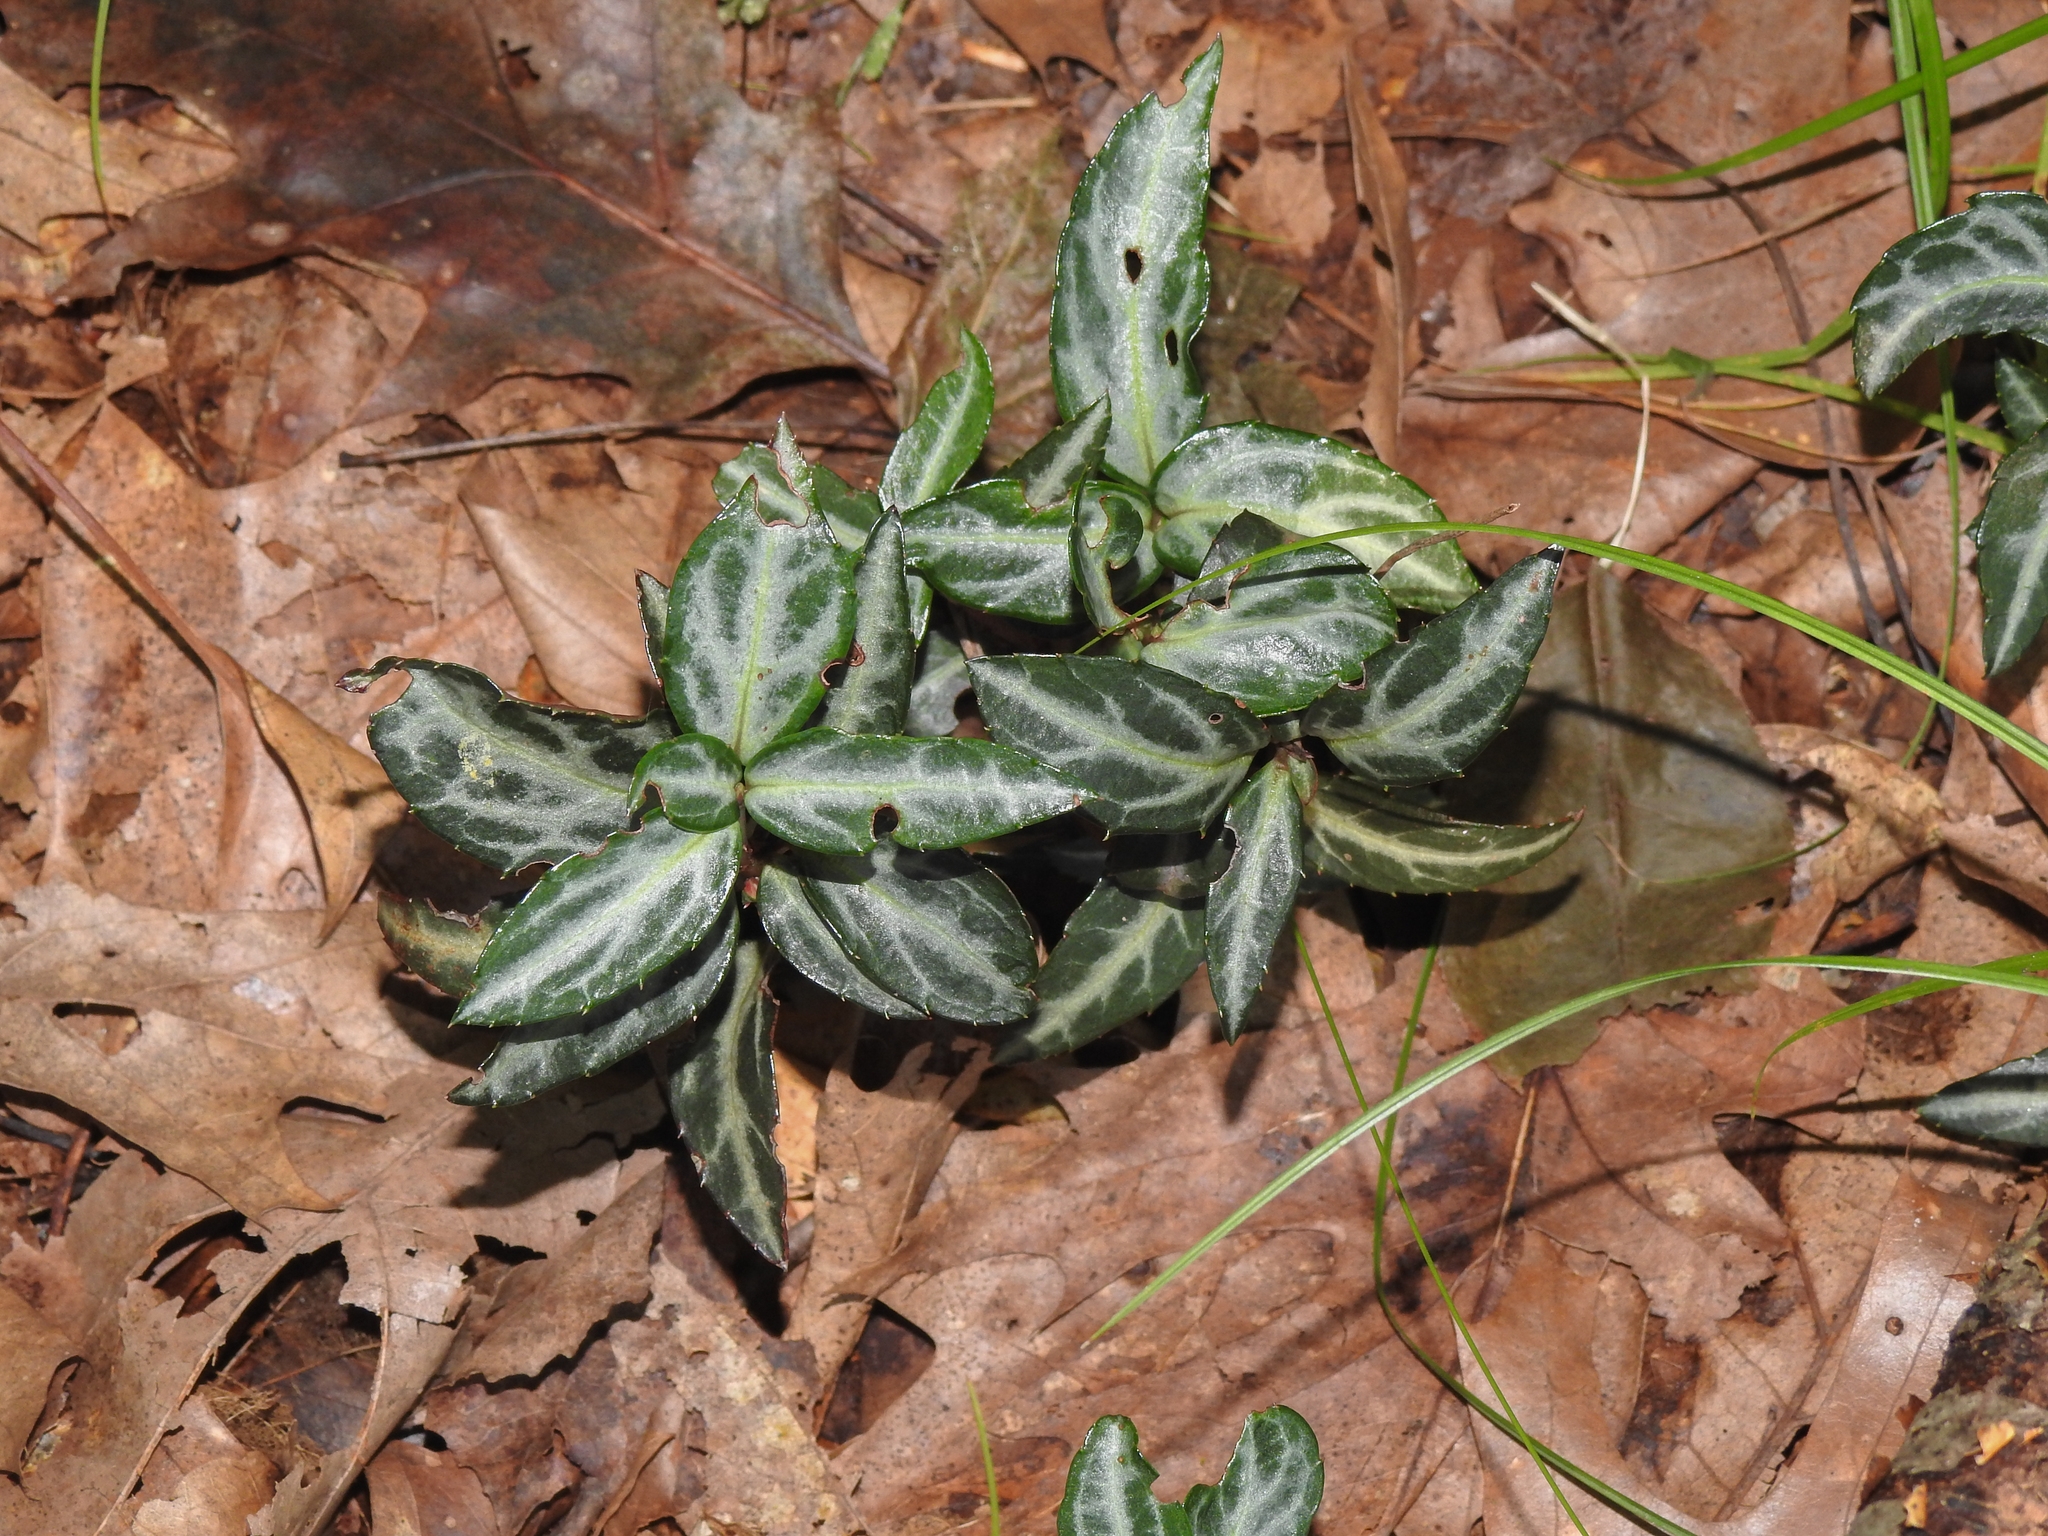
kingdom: Plantae
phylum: Tracheophyta
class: Magnoliopsida
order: Ericales
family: Ericaceae
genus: Chimaphila
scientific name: Chimaphila maculata
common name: Spotted pipsissewa
